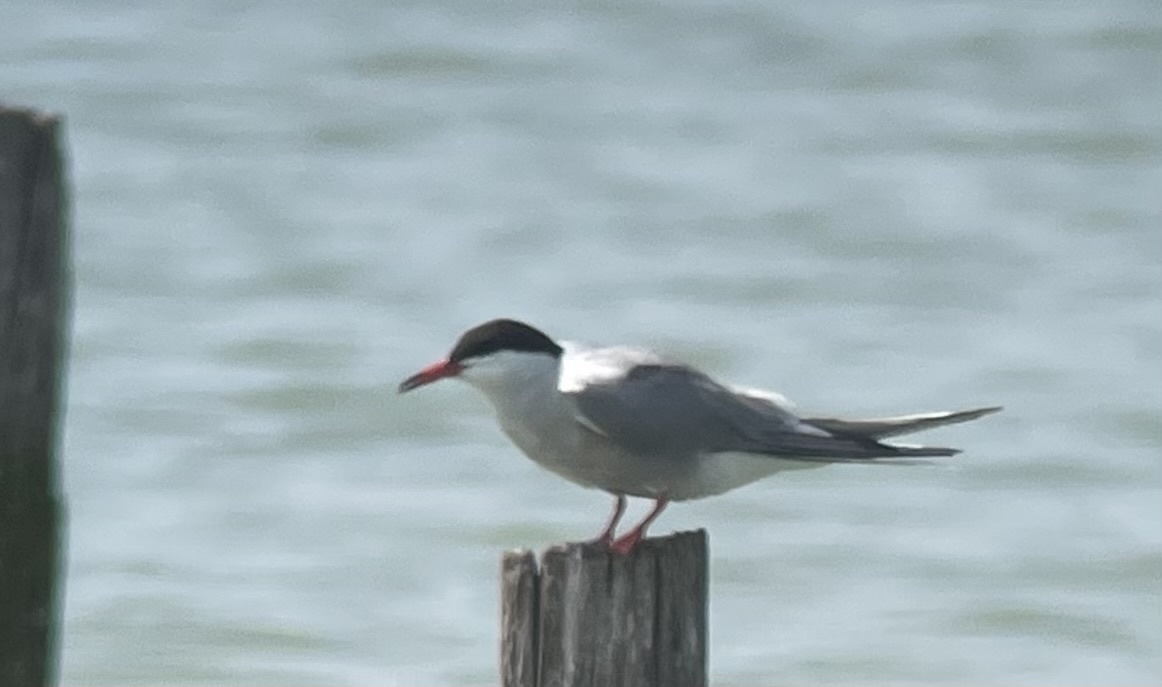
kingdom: Animalia
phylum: Chordata
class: Aves
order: Charadriiformes
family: Laridae
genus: Sterna
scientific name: Sterna hirundo
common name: Common tern
